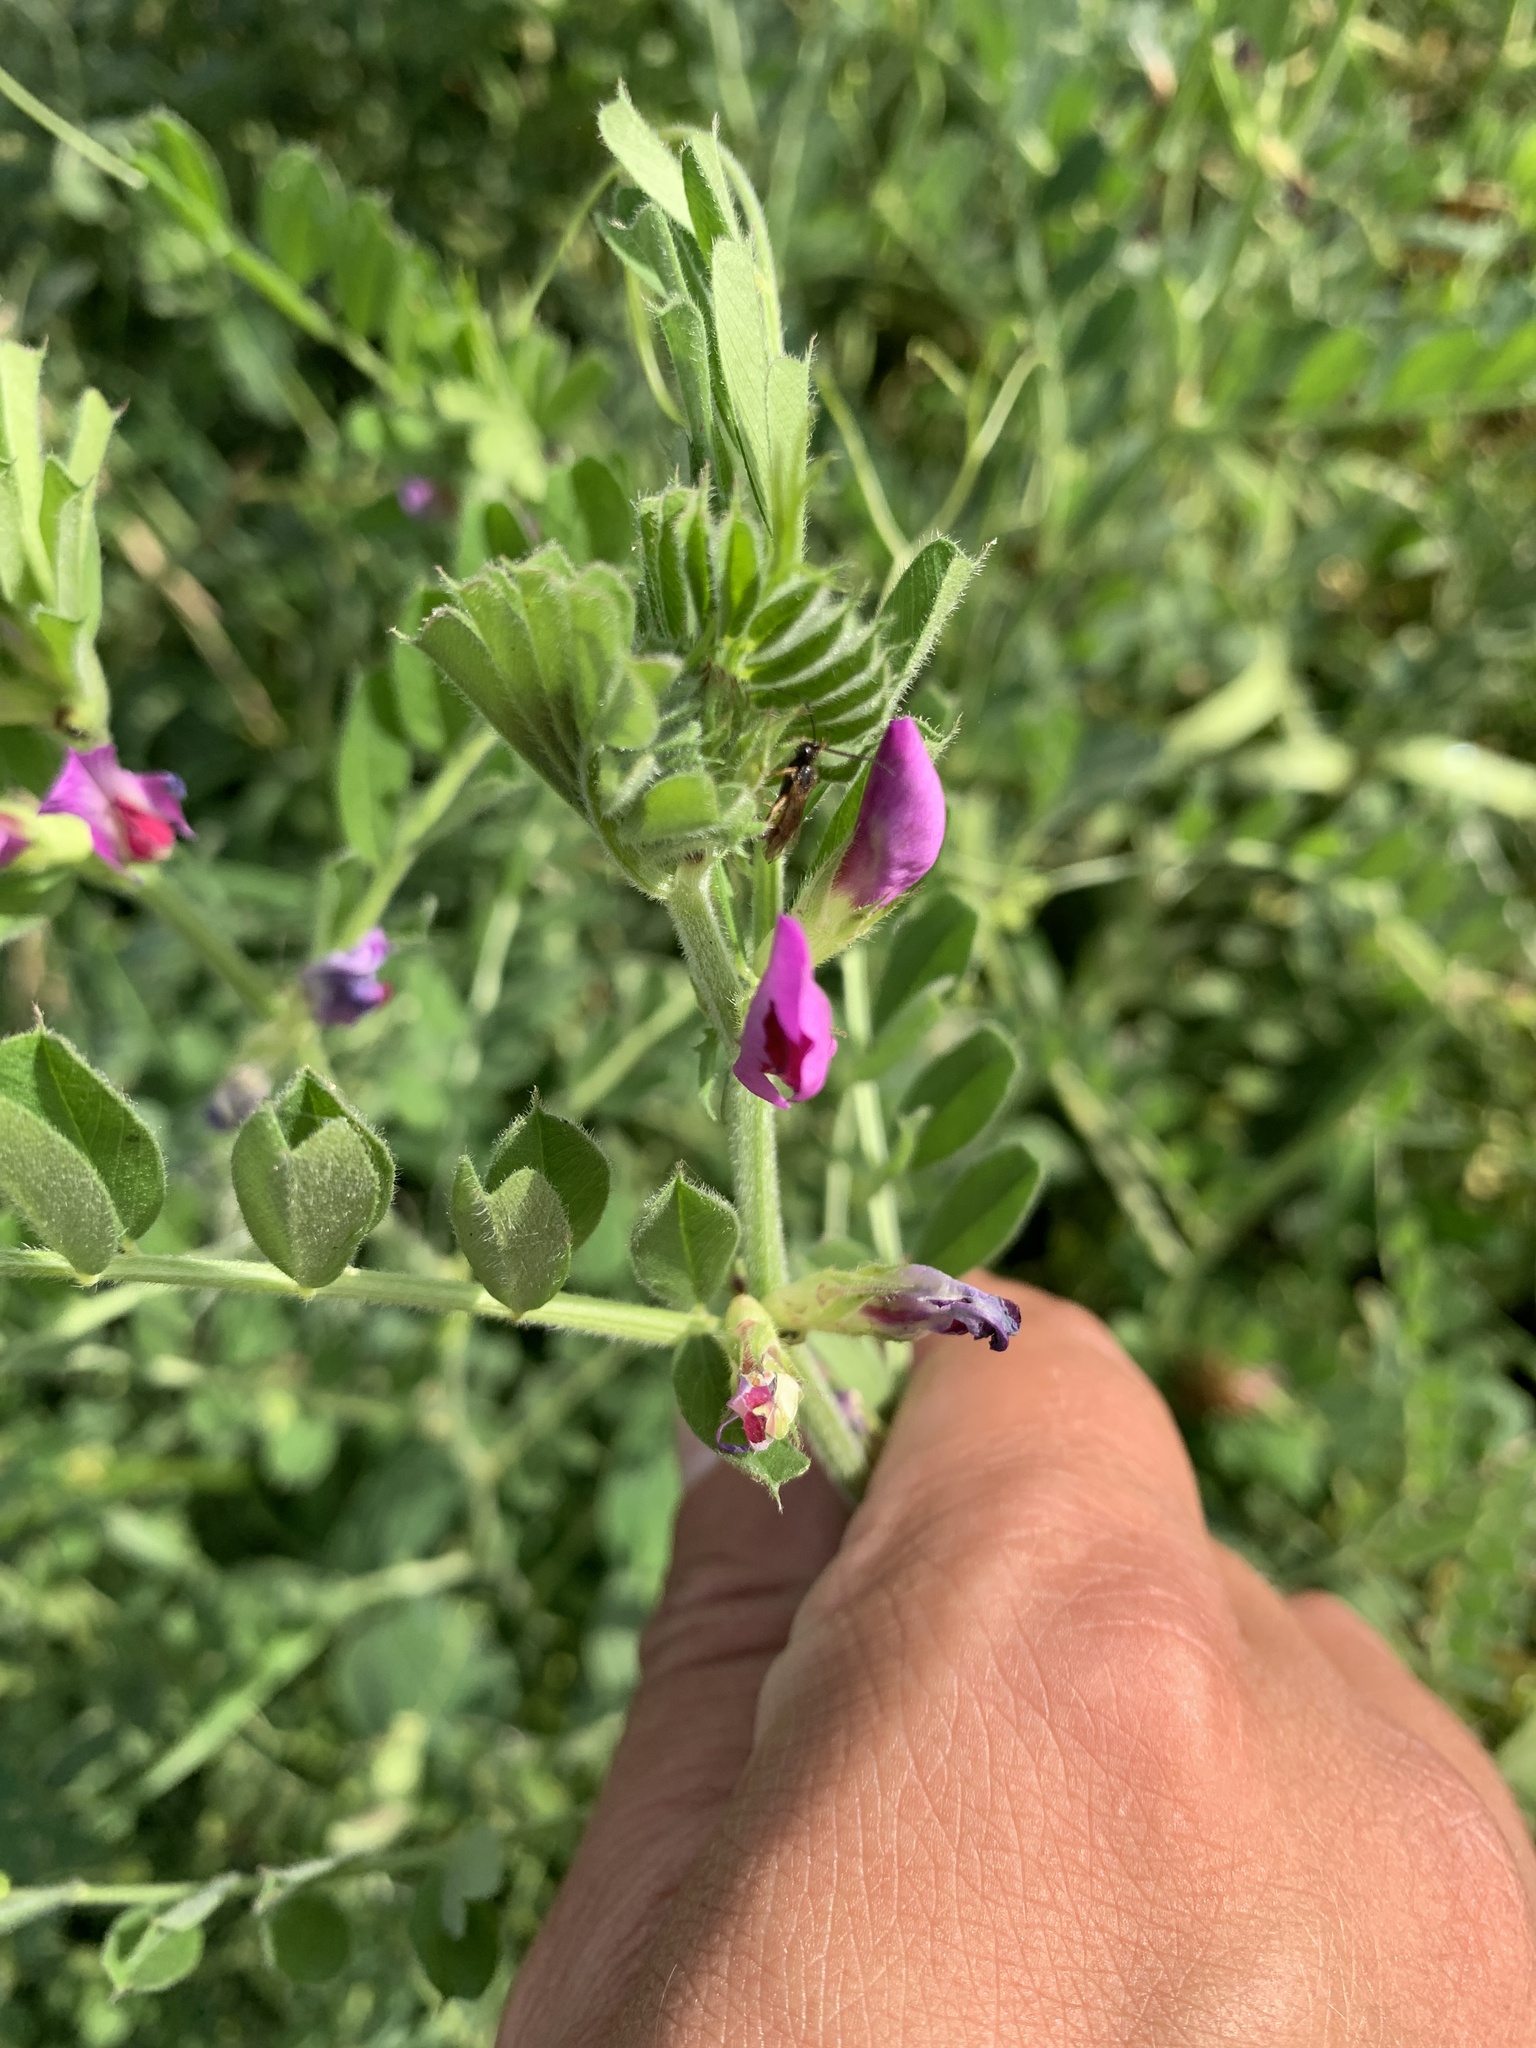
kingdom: Plantae
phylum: Tracheophyta
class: Magnoliopsida
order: Fabales
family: Fabaceae
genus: Vicia
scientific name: Vicia sativa
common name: Garden vetch
